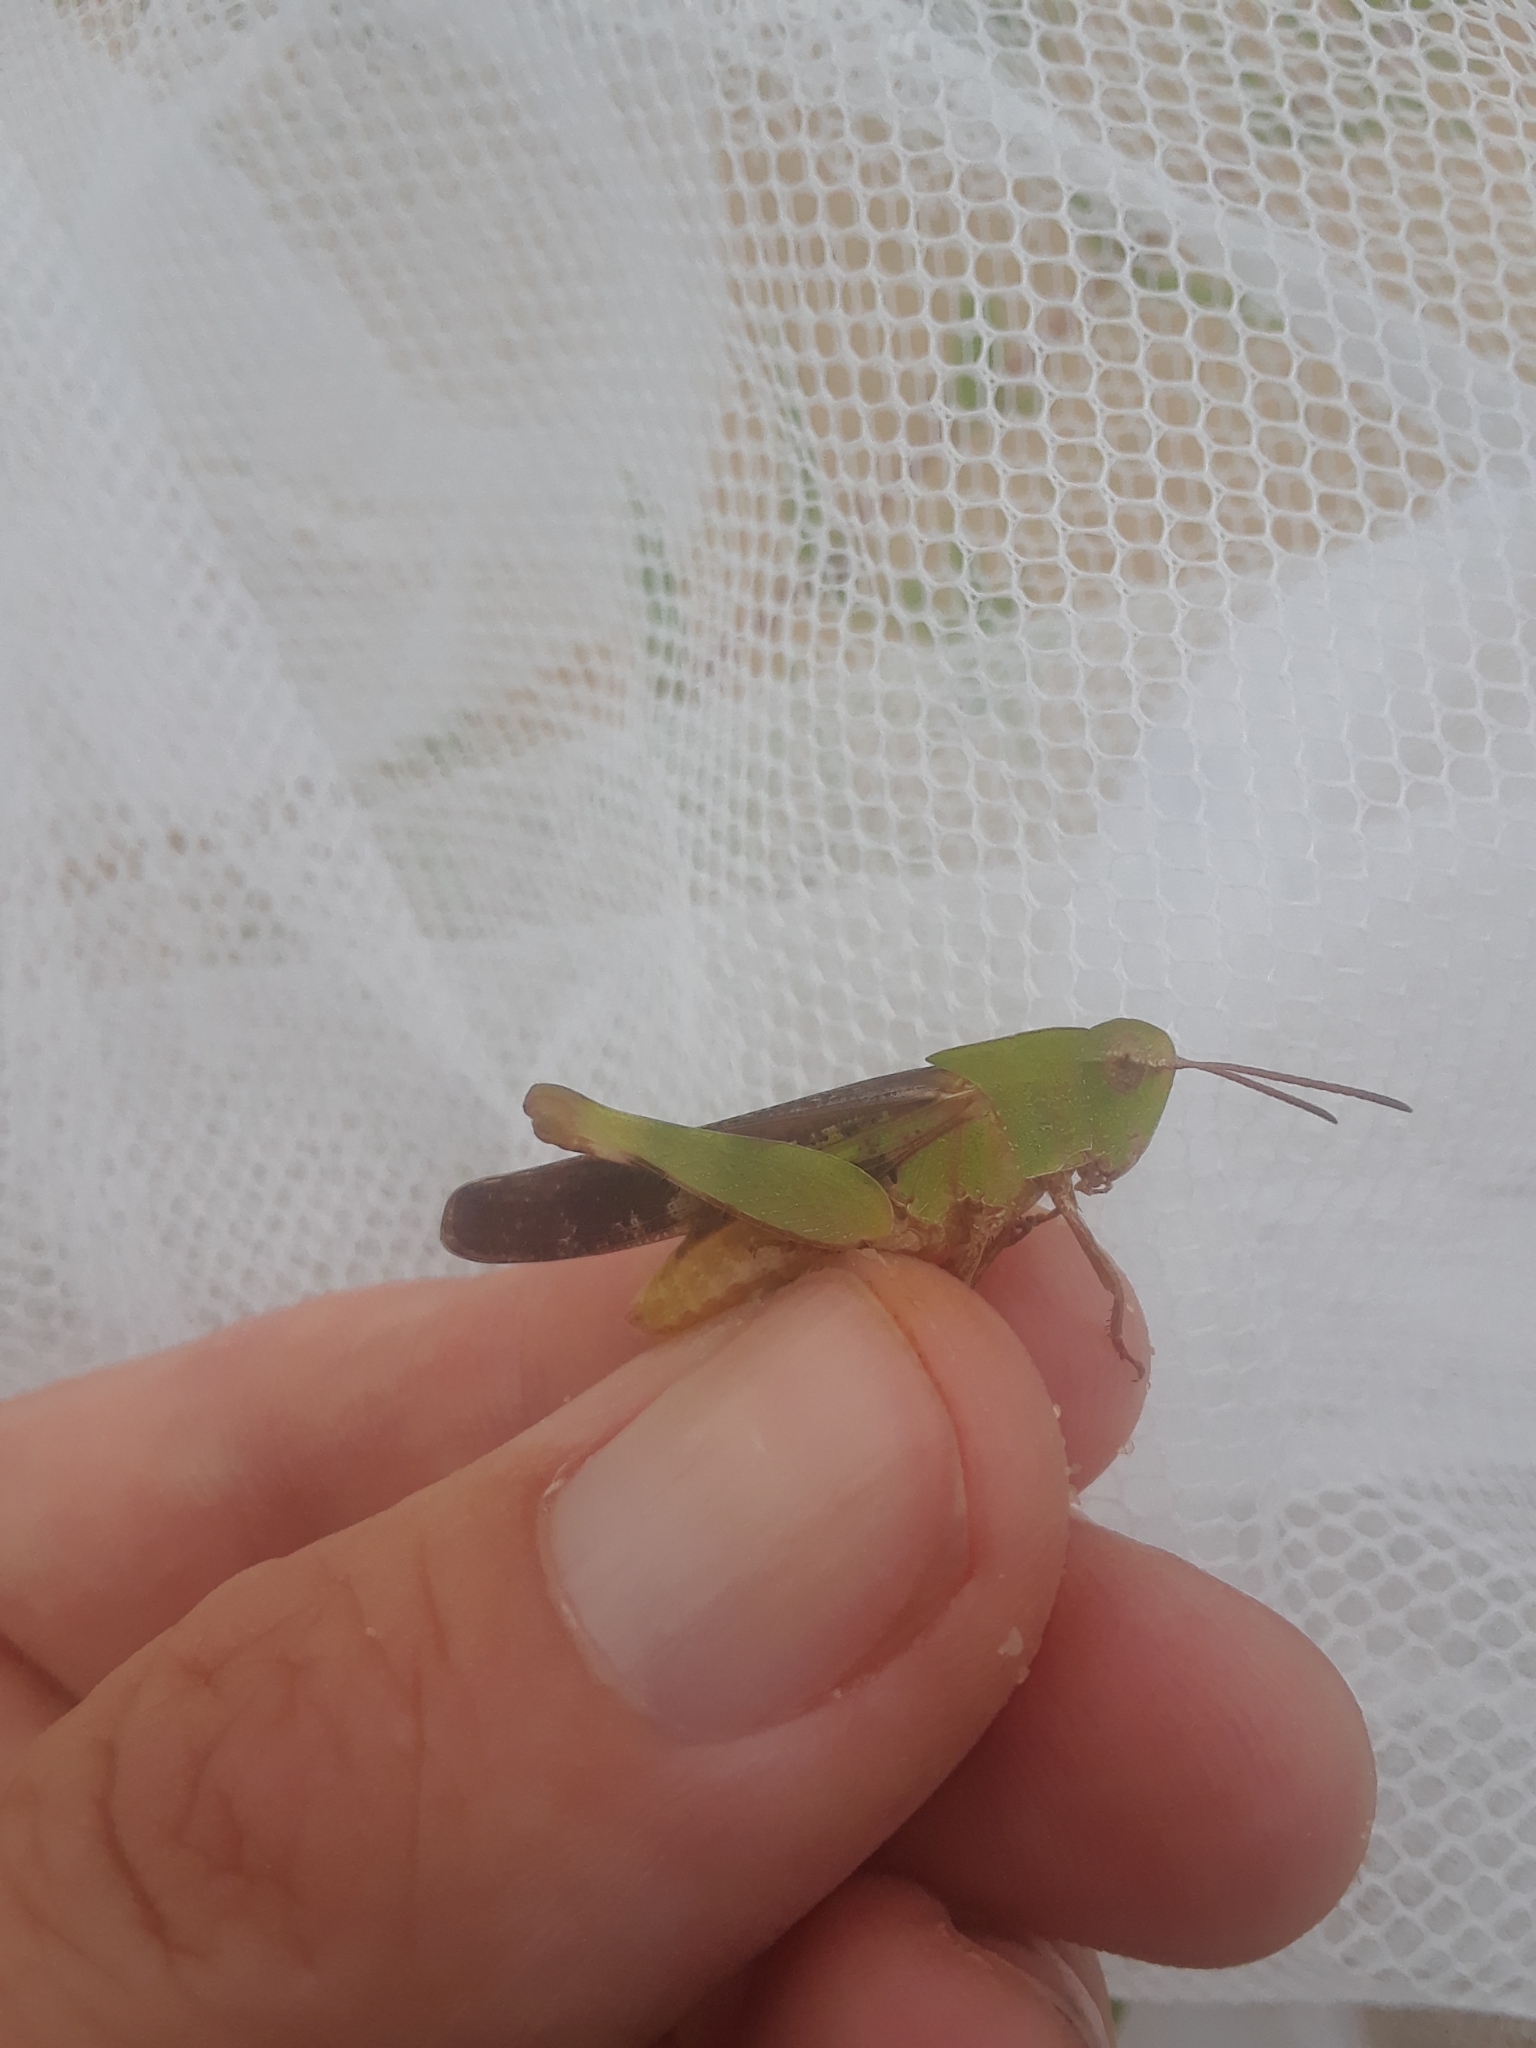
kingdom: Animalia
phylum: Arthropoda
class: Insecta
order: Orthoptera
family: Acrididae
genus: Chortophaga
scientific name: Chortophaga viridifasciata
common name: Green-striped grasshopper
